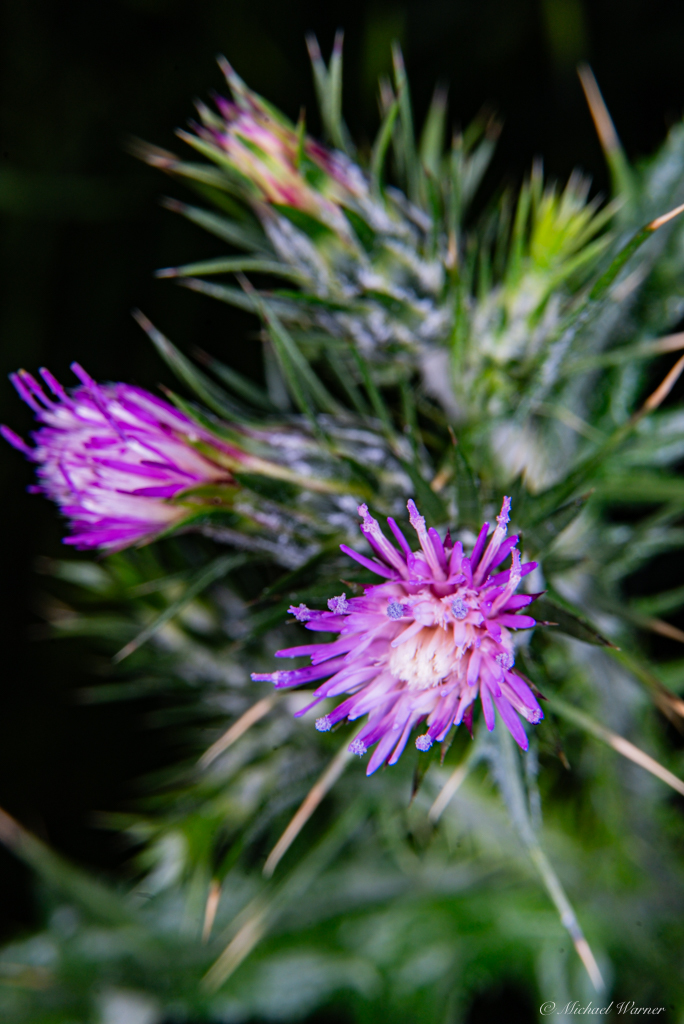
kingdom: Plantae
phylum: Tracheophyta
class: Magnoliopsida
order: Asterales
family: Asteraceae
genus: Carduus
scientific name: Carduus pycnocephalus
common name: Plymouth thistle
